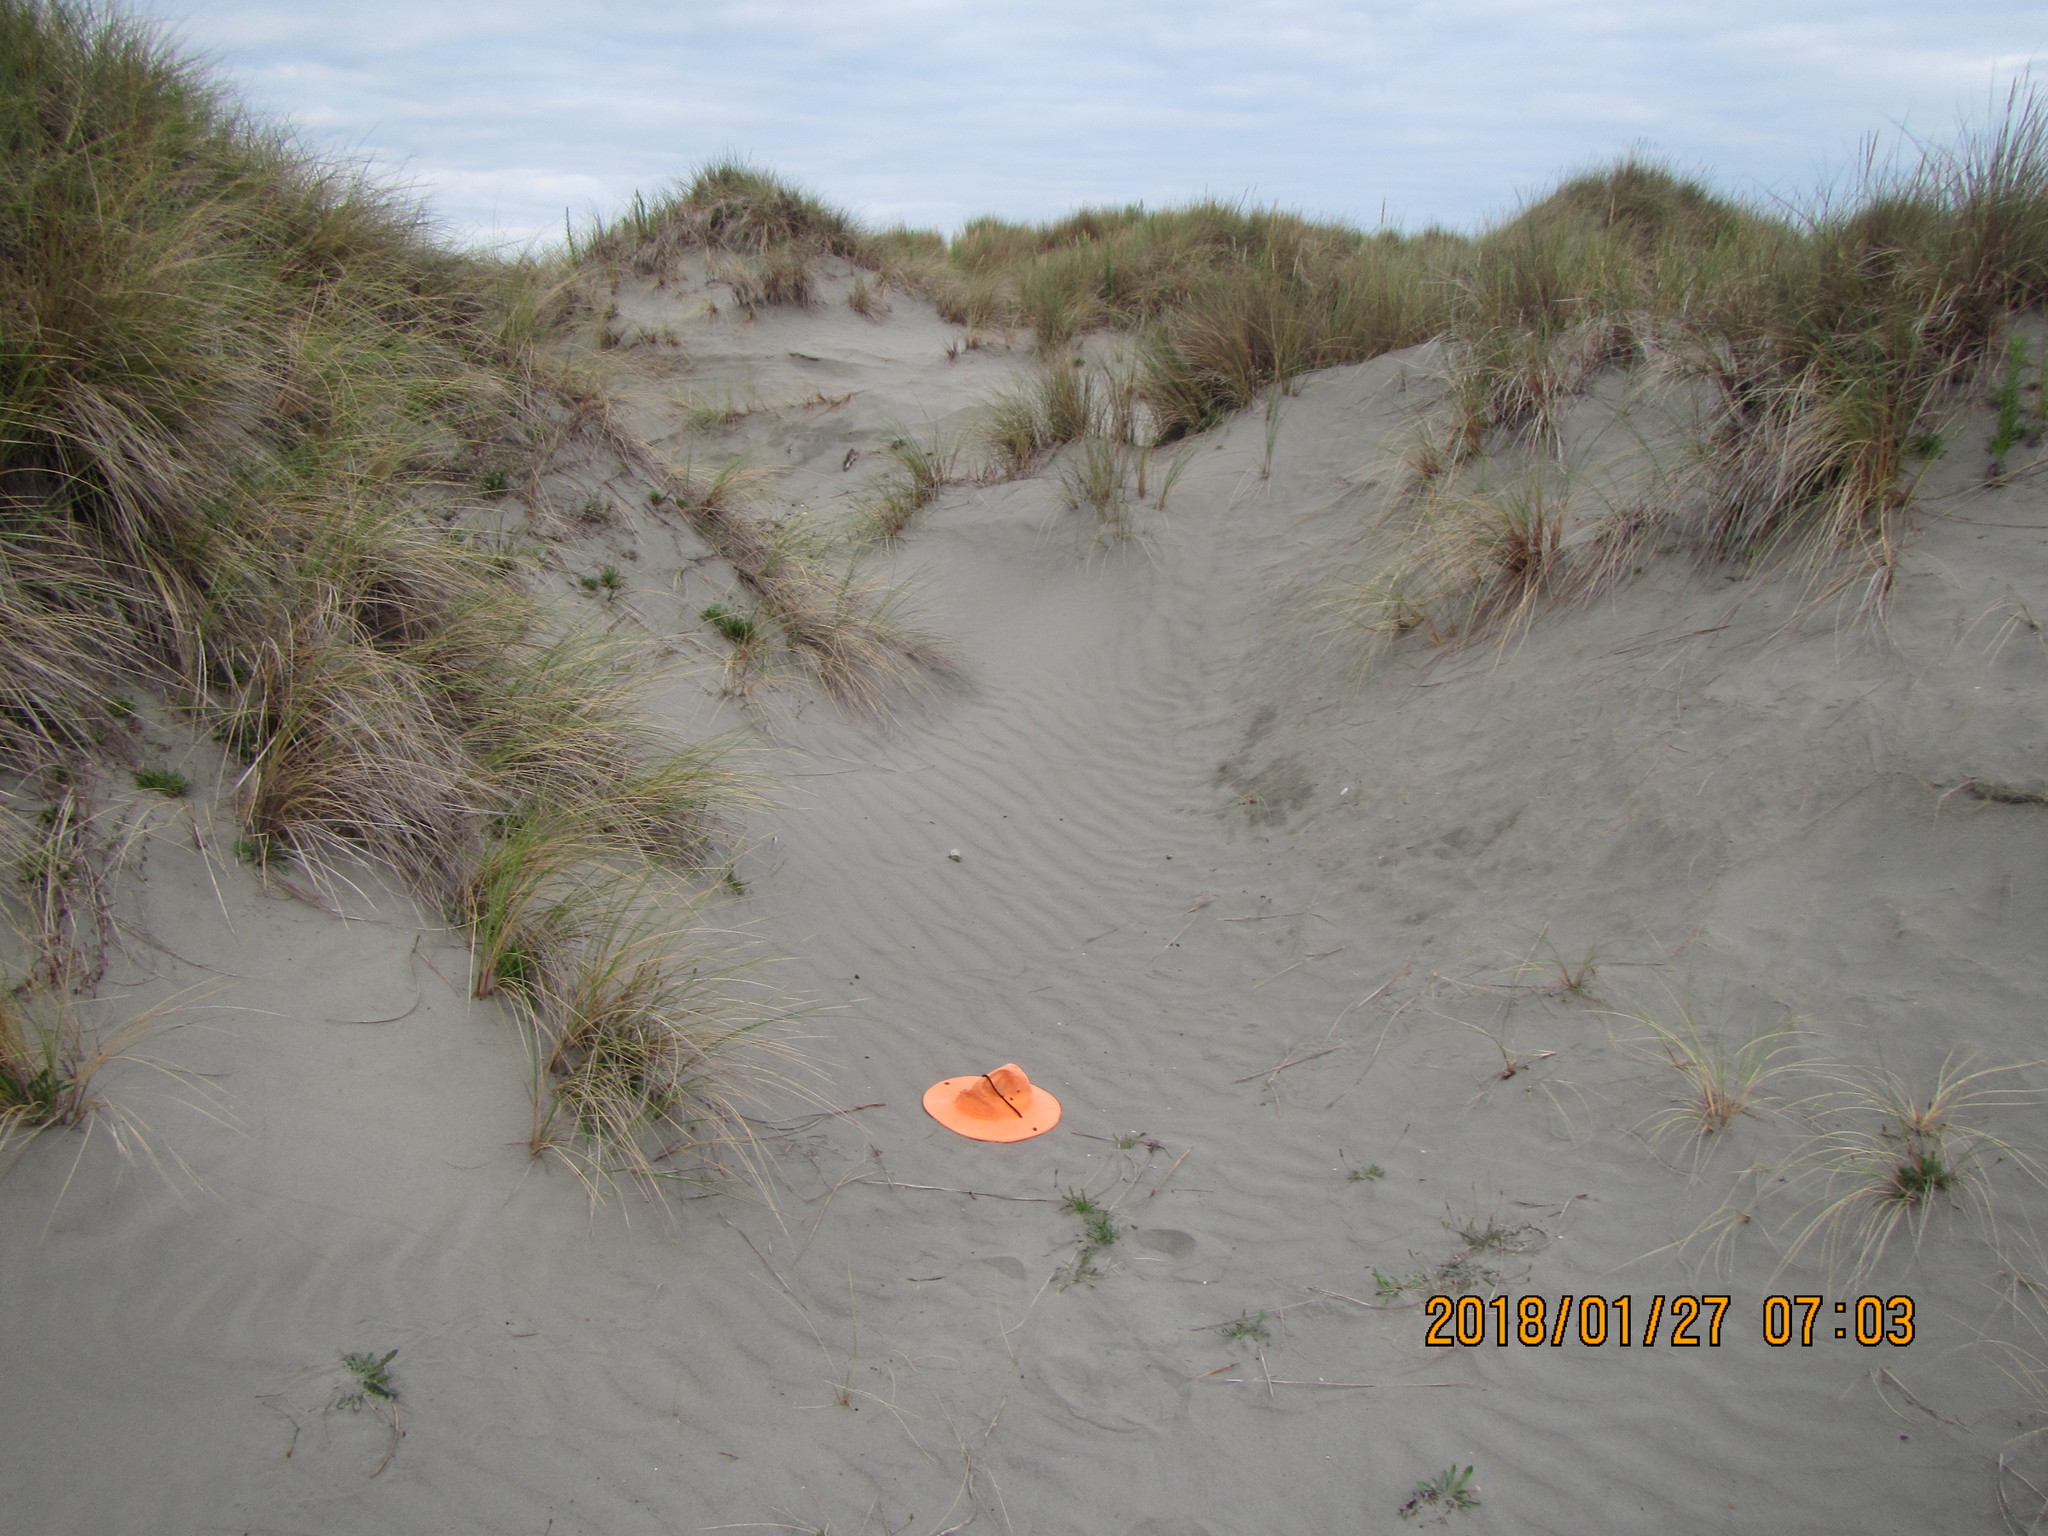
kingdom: Animalia
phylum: Arthropoda
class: Arachnida
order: Araneae
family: Lycosidae
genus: Anoteropsis
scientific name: Anoteropsis litoralis
